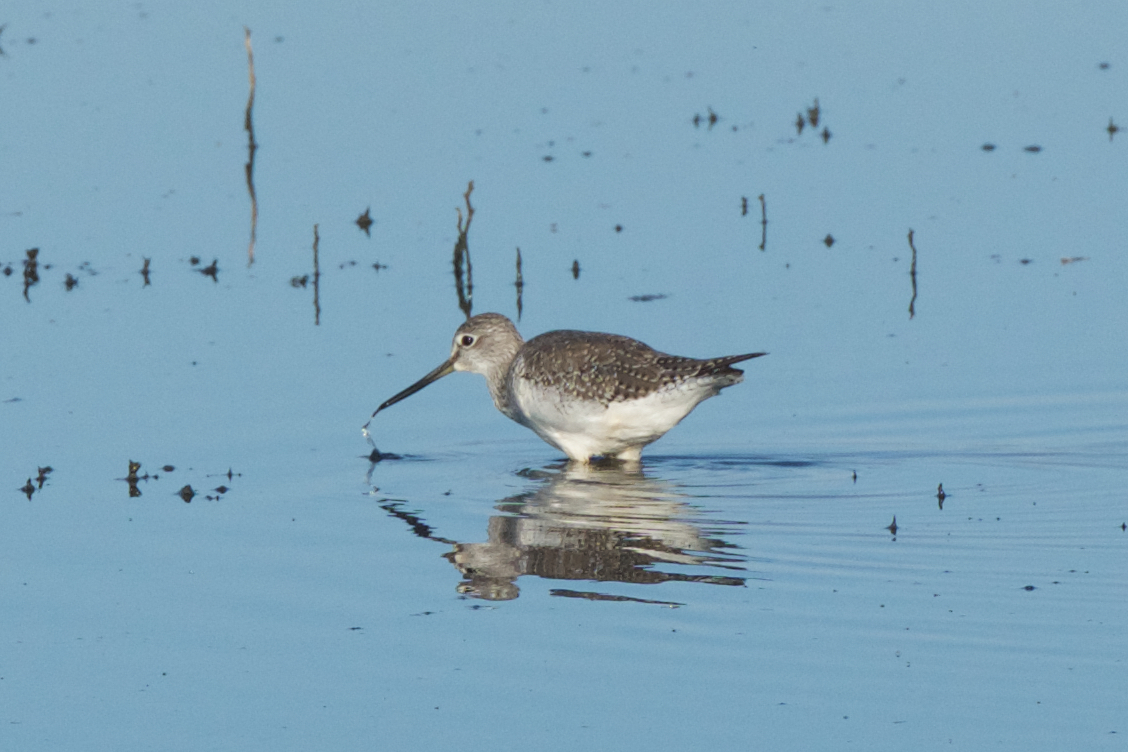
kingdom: Animalia
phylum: Chordata
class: Aves
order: Charadriiformes
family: Scolopacidae
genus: Tringa
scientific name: Tringa melanoleuca
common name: Greater yellowlegs
